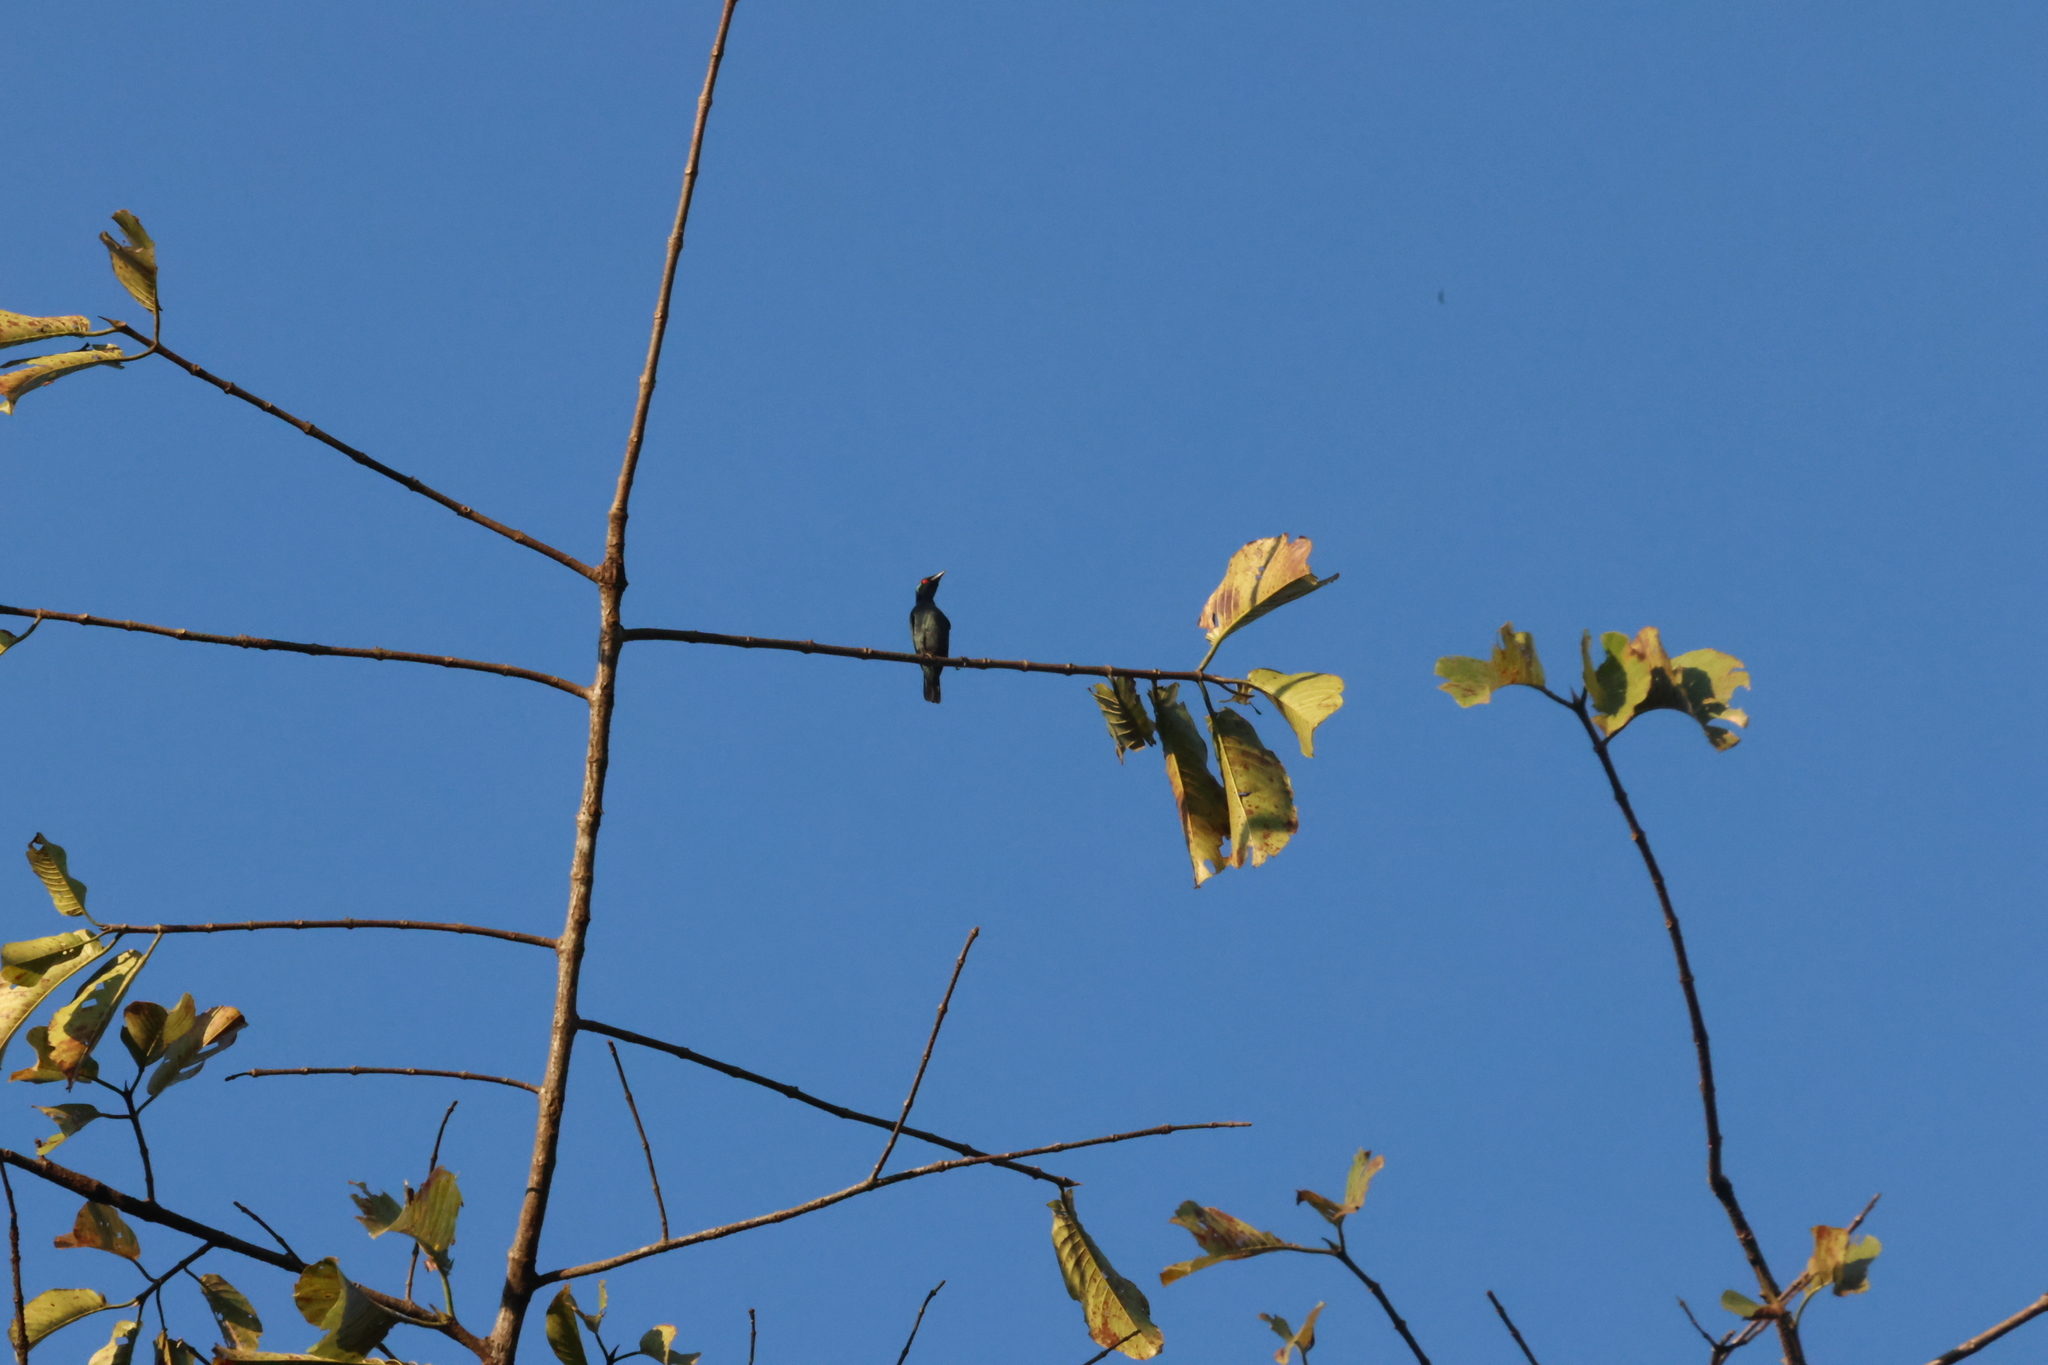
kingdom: Animalia
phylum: Chordata
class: Aves
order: Passeriformes
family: Sturnidae
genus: Aplonis
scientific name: Aplonis panayensis
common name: Asian glossy starling
